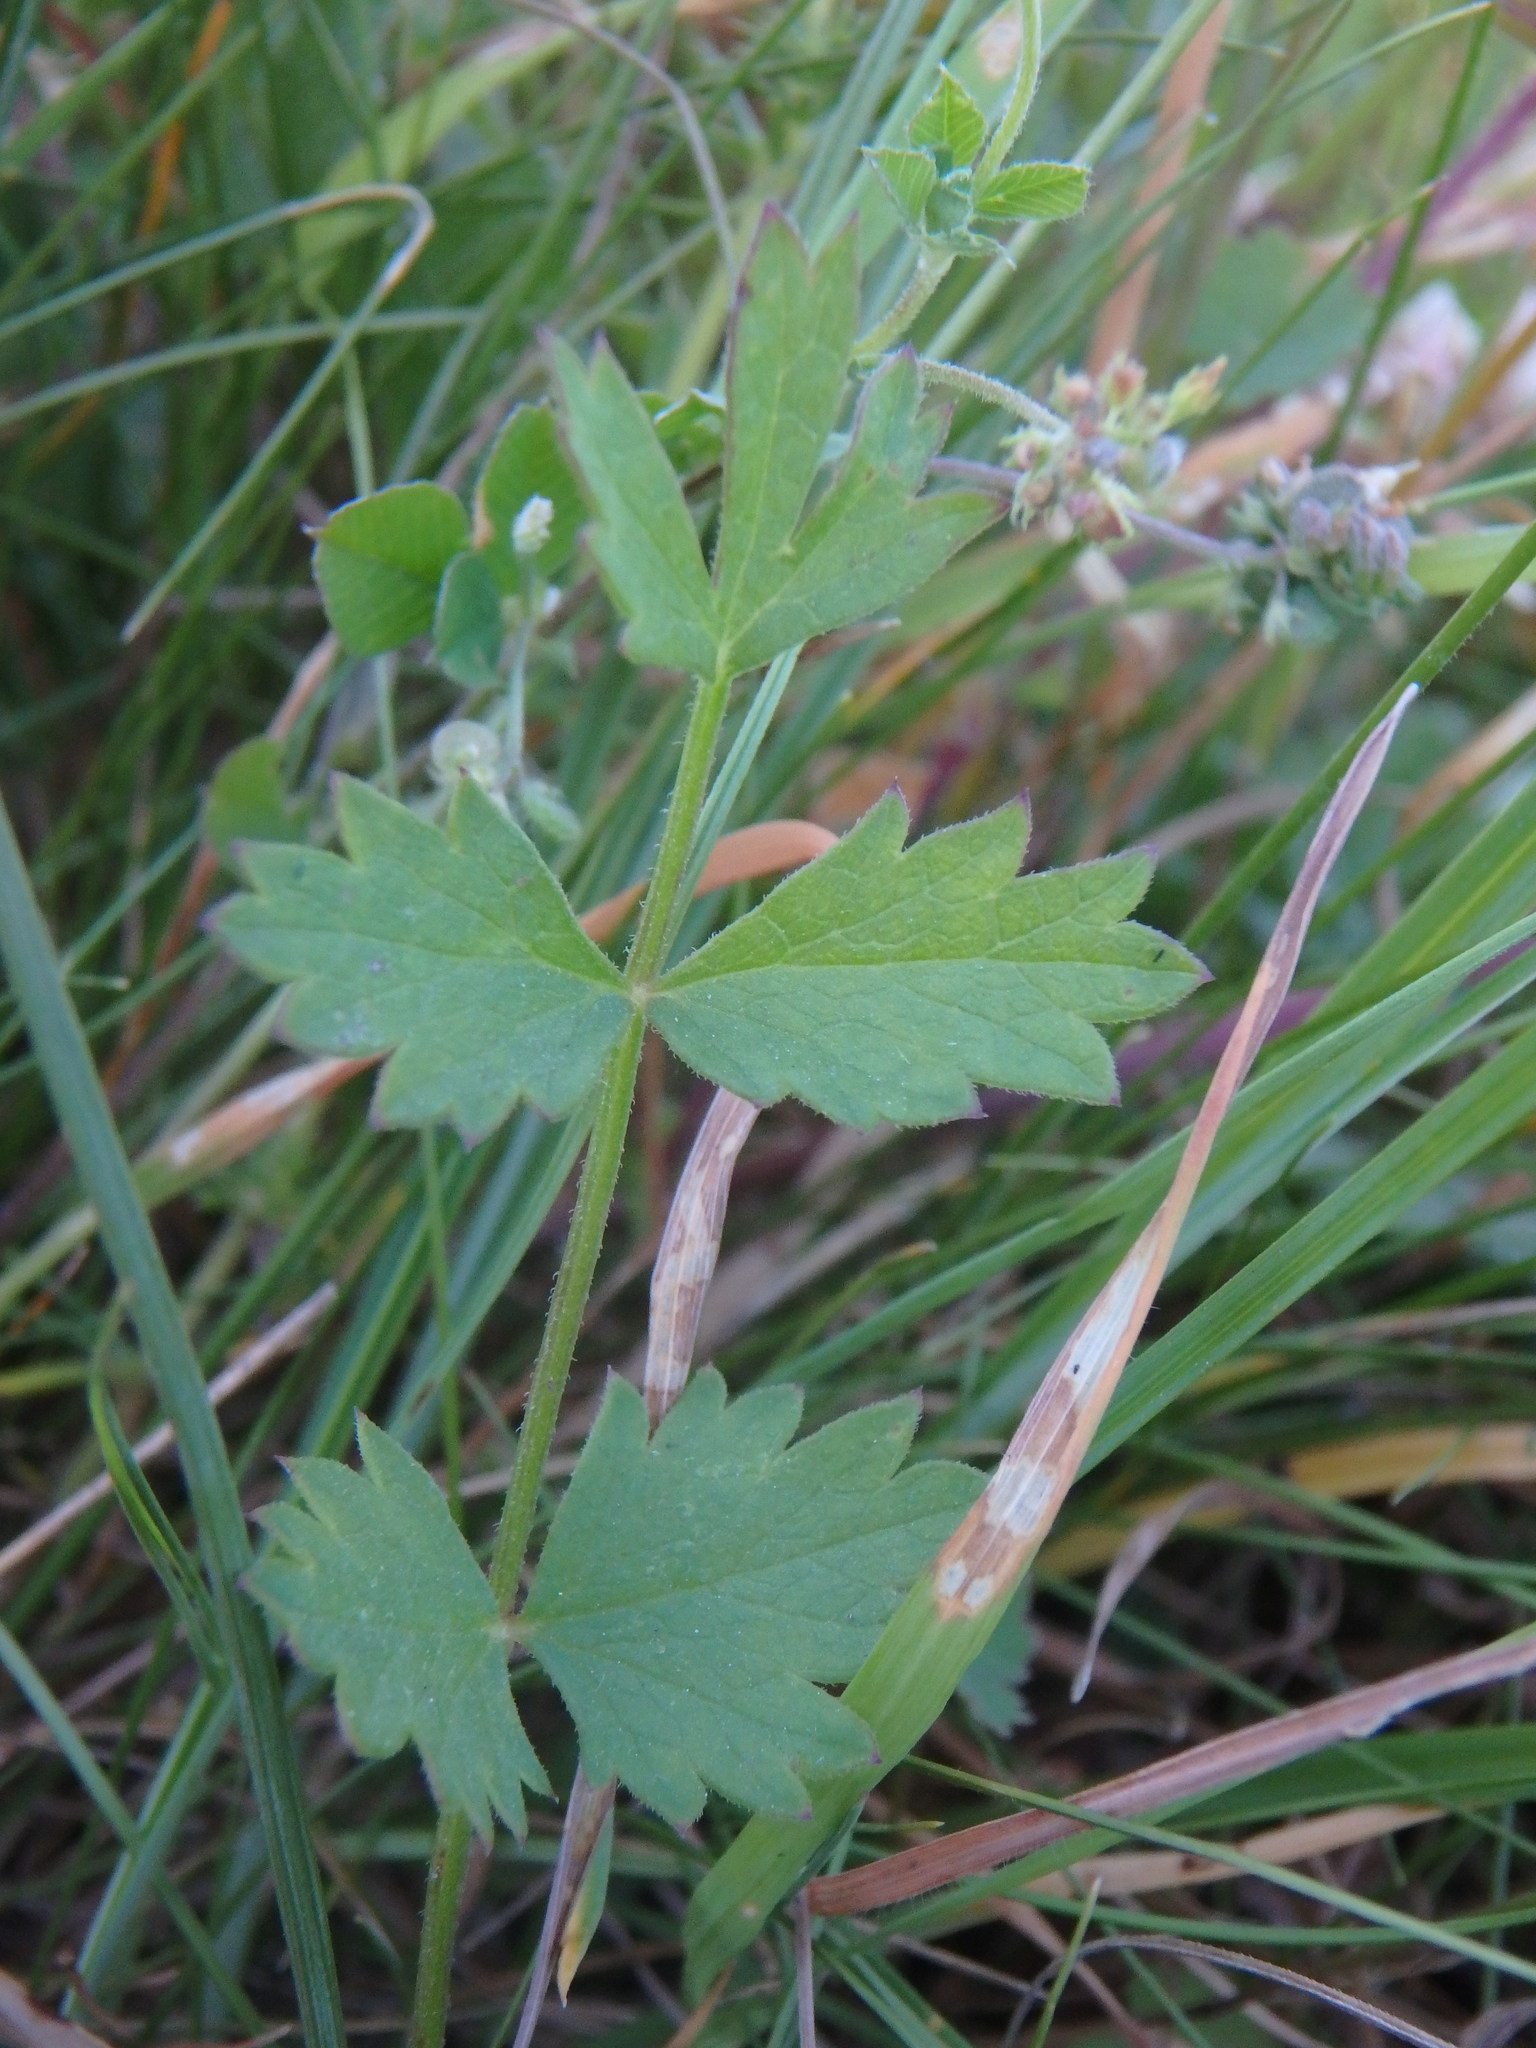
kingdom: Plantae
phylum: Tracheophyta
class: Magnoliopsida
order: Apiales
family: Apiaceae
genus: Pimpinella
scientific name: Pimpinella saxifraga
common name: Burnet-saxifrage
